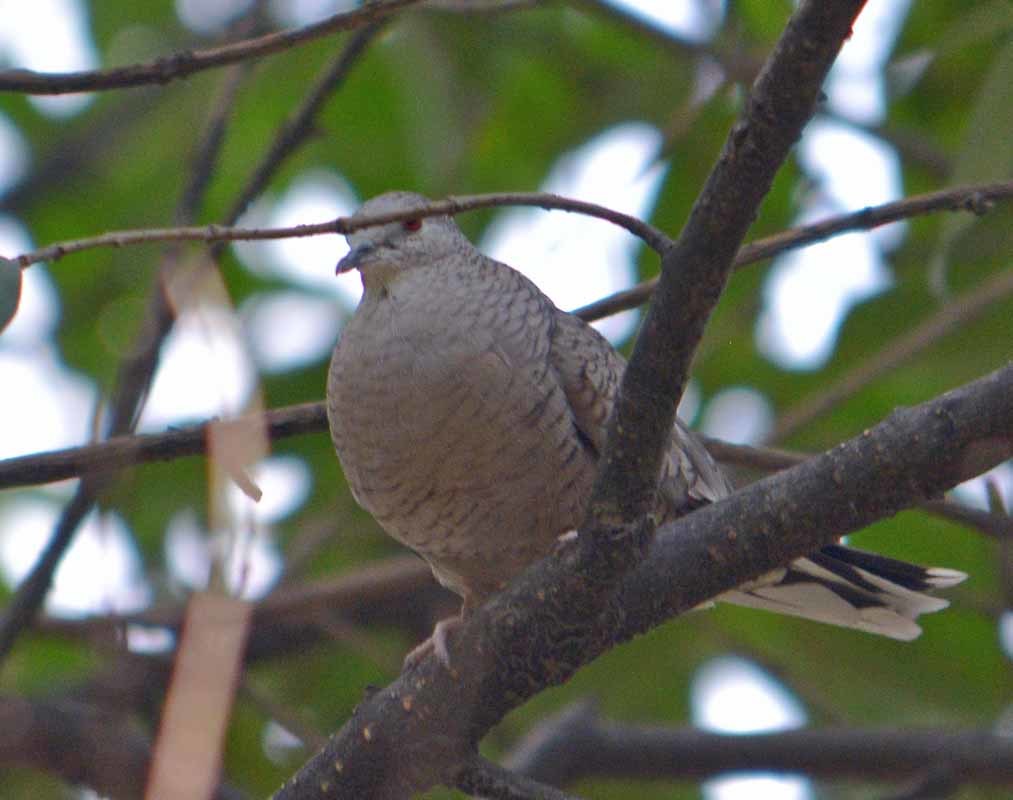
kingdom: Animalia
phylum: Chordata
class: Aves
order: Columbiformes
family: Columbidae
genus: Columbina
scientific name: Columbina inca
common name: Inca dove
